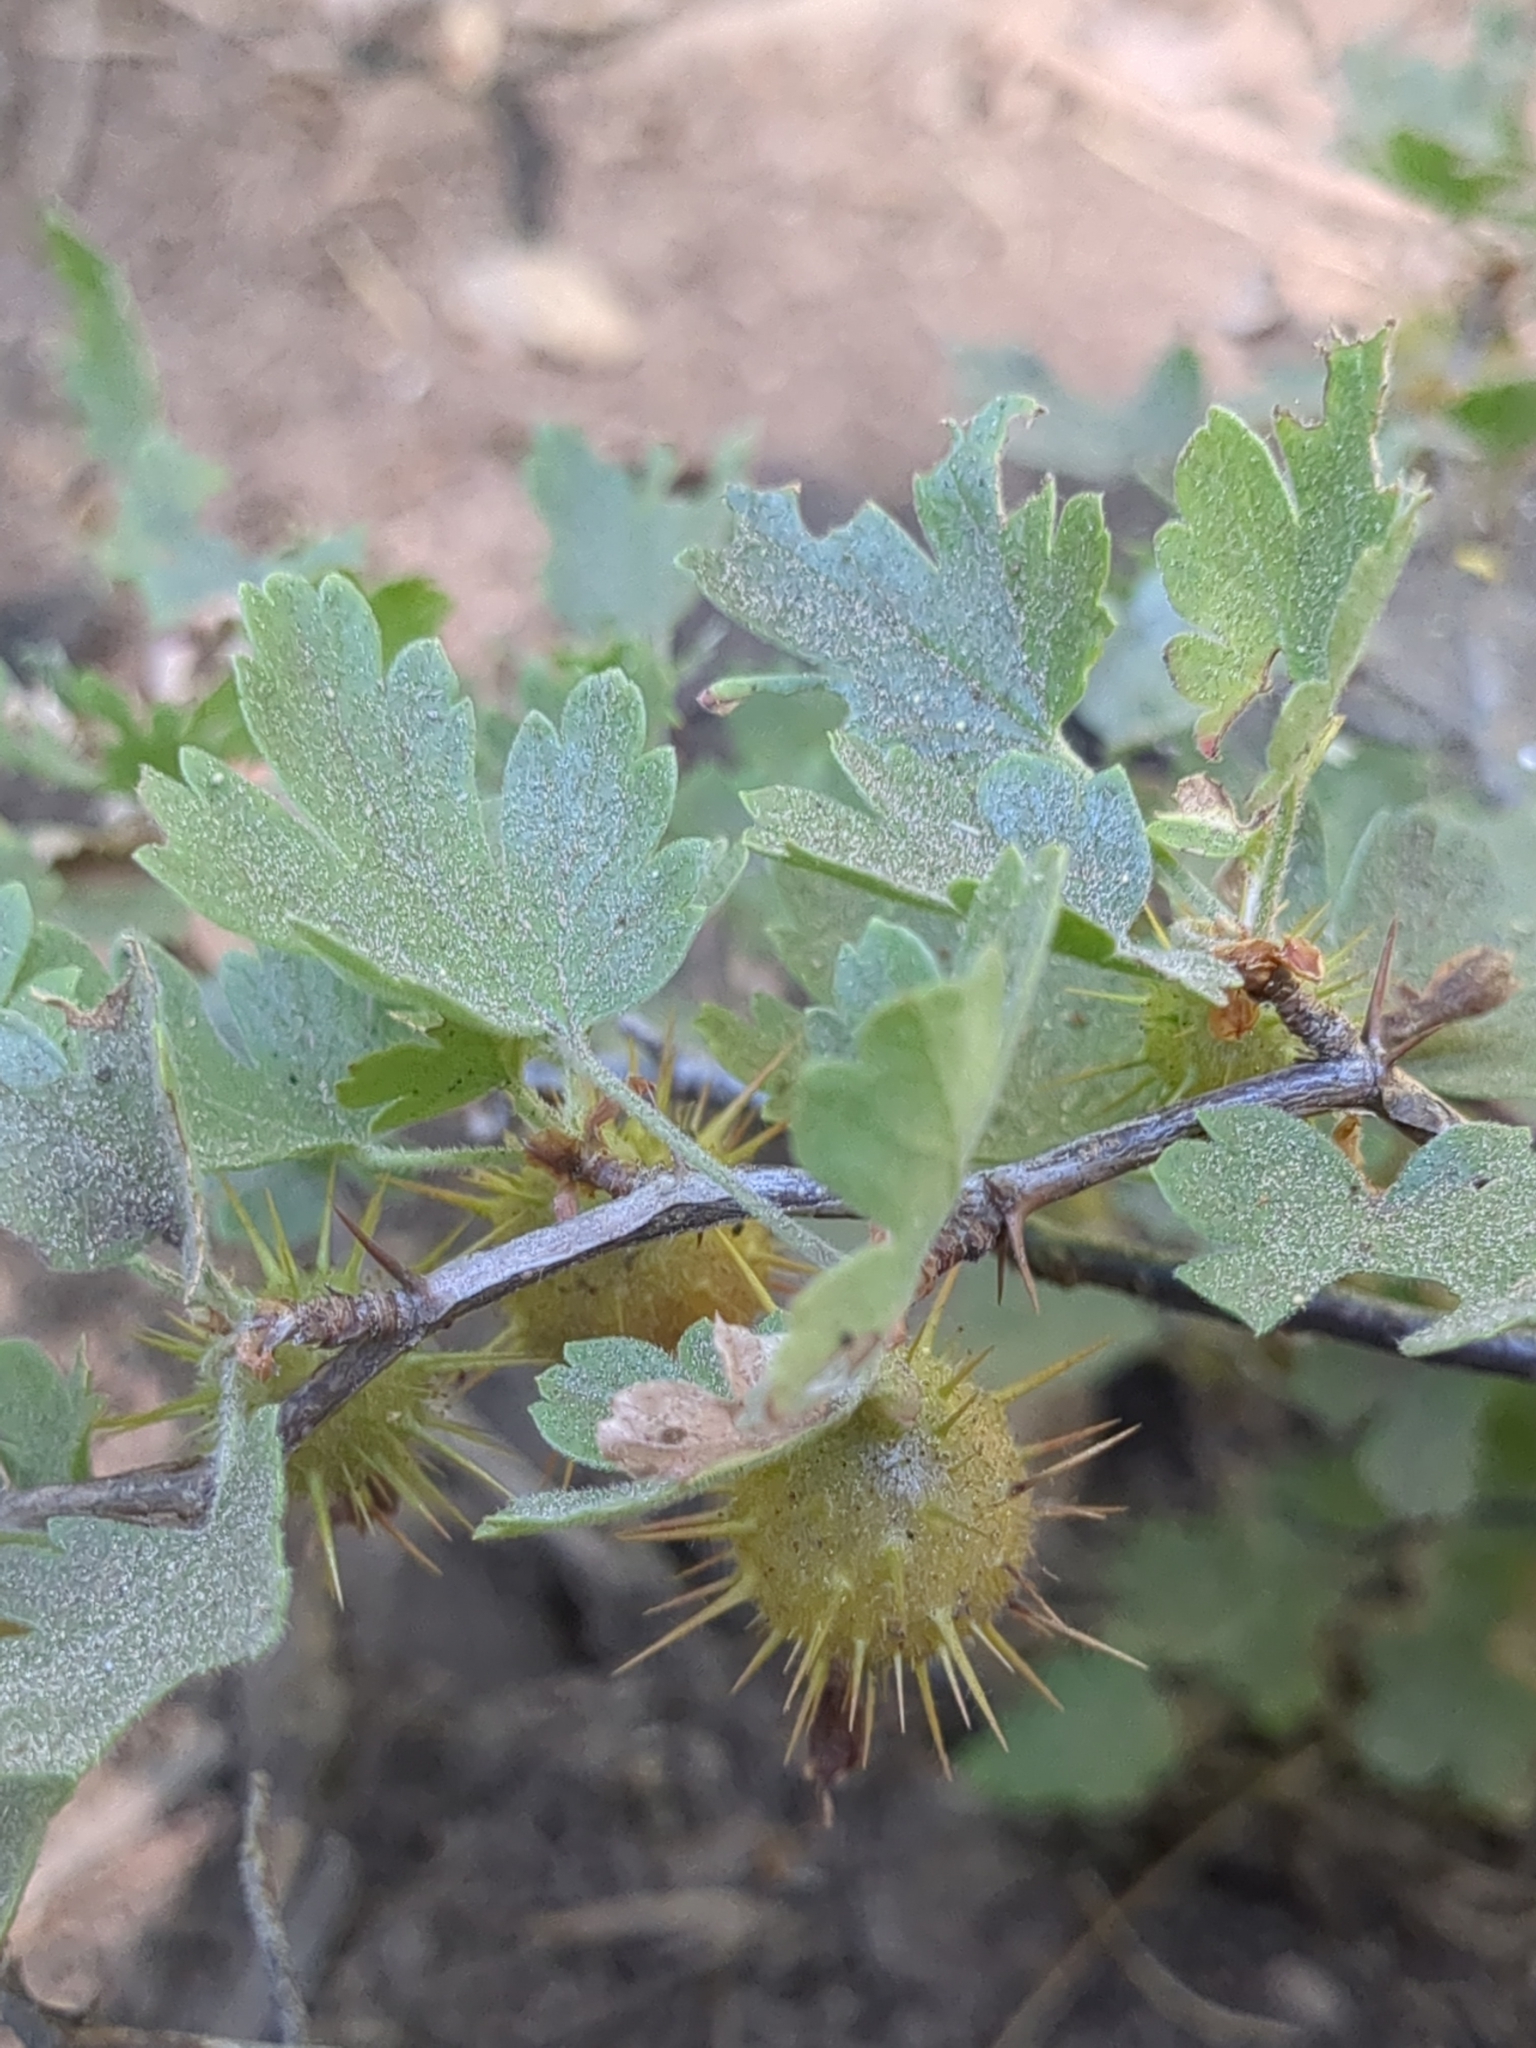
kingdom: Plantae
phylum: Tracheophyta
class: Magnoliopsida
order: Saxifragales
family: Grossulariaceae
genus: Ribes
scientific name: Ribes roezlii
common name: Sierra gooseberry
